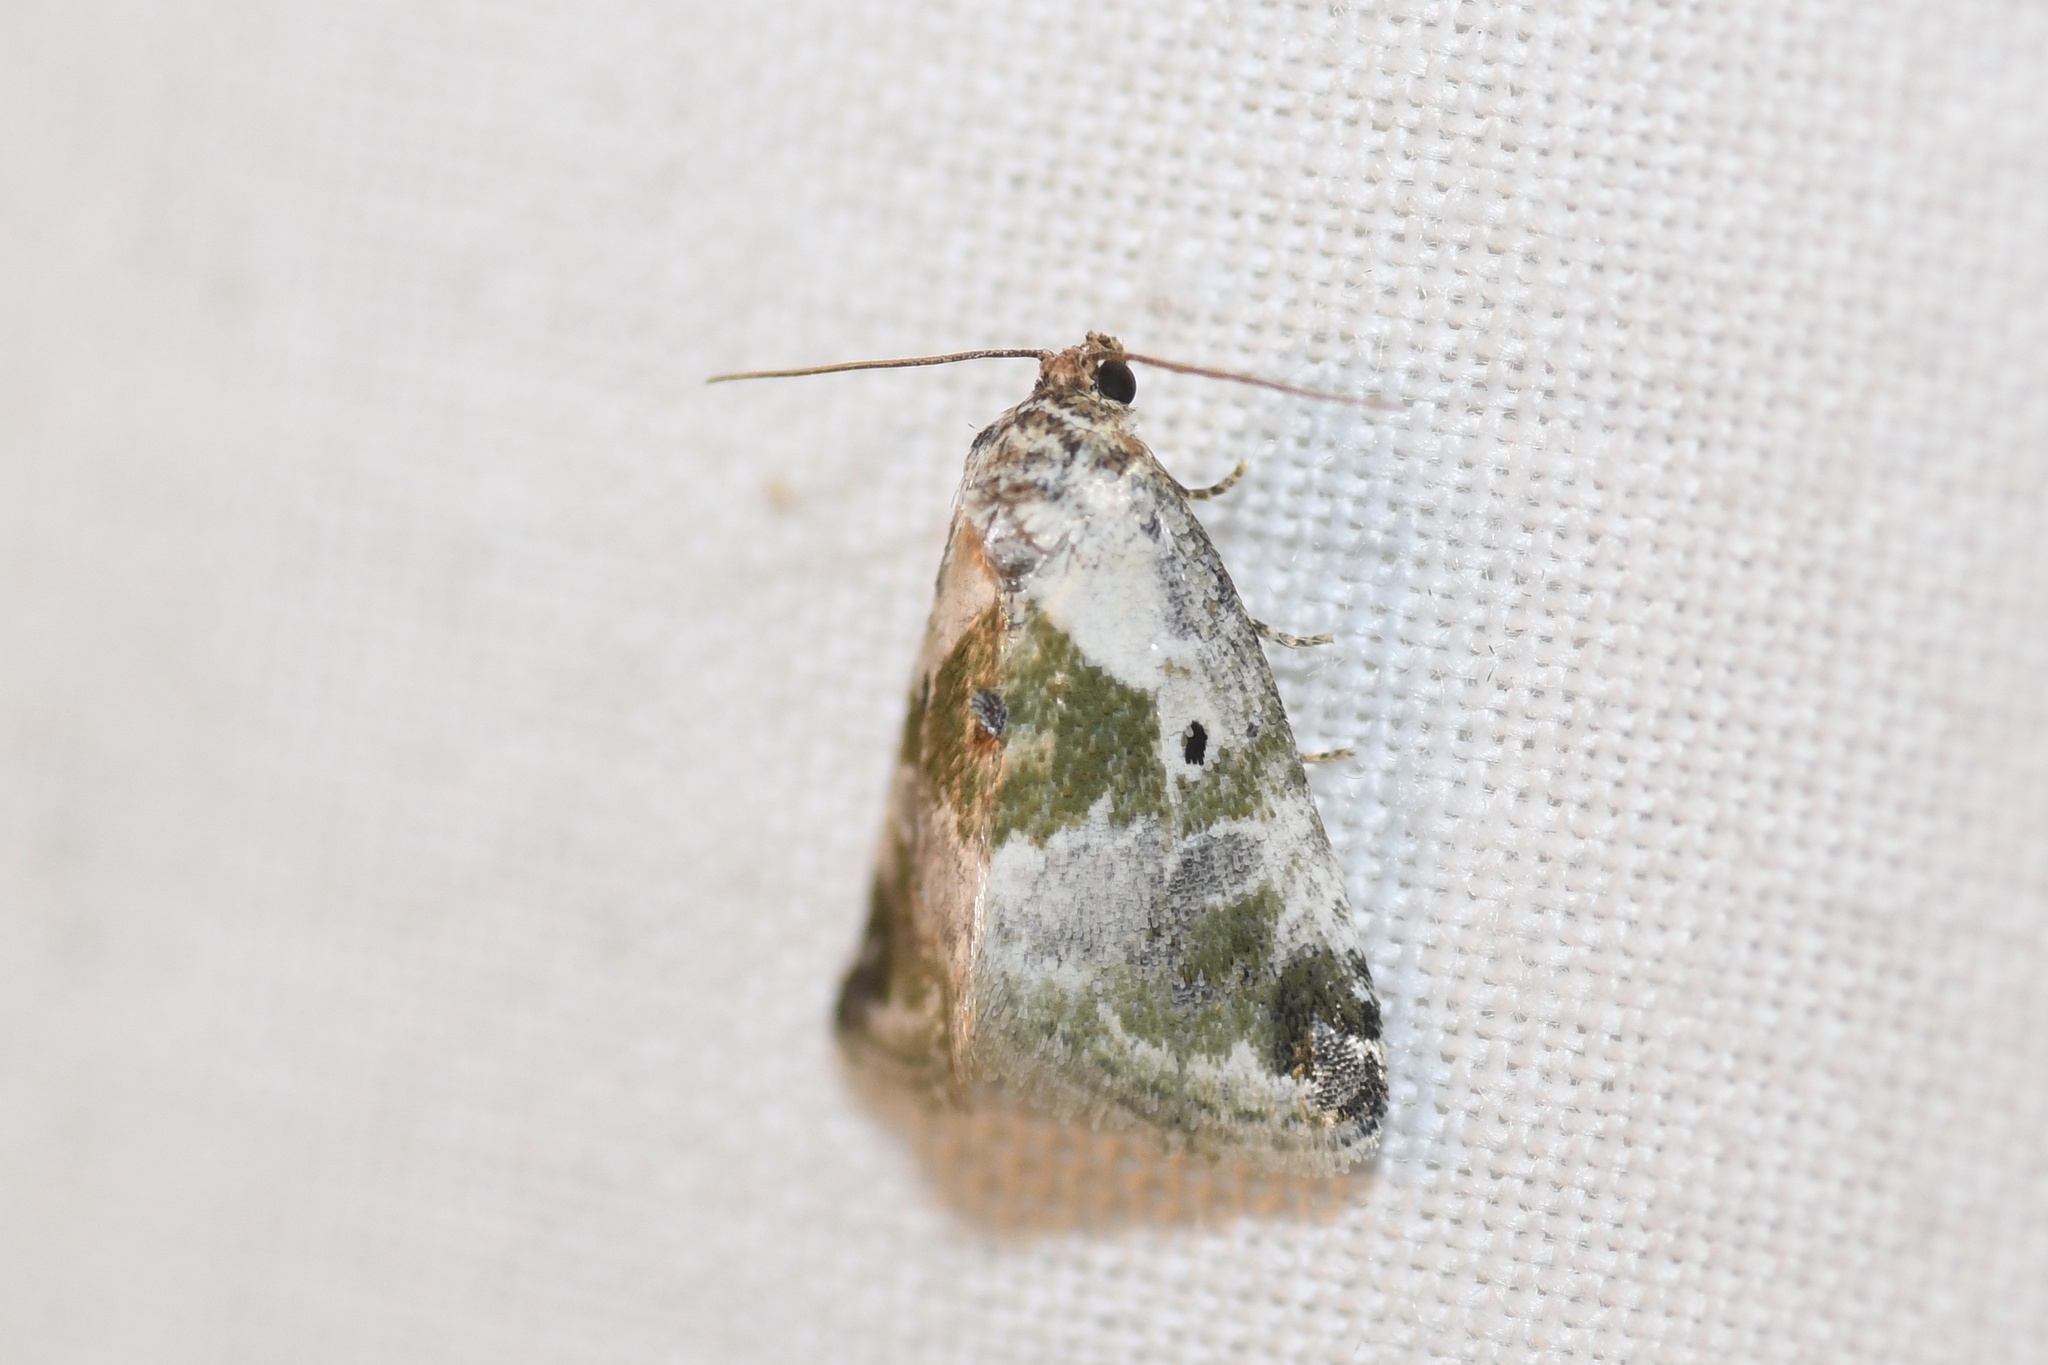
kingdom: Animalia
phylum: Arthropoda
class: Insecta
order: Lepidoptera
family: Noctuidae
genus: Maliattha
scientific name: Maliattha synochitis
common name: Black-dotted glyph
